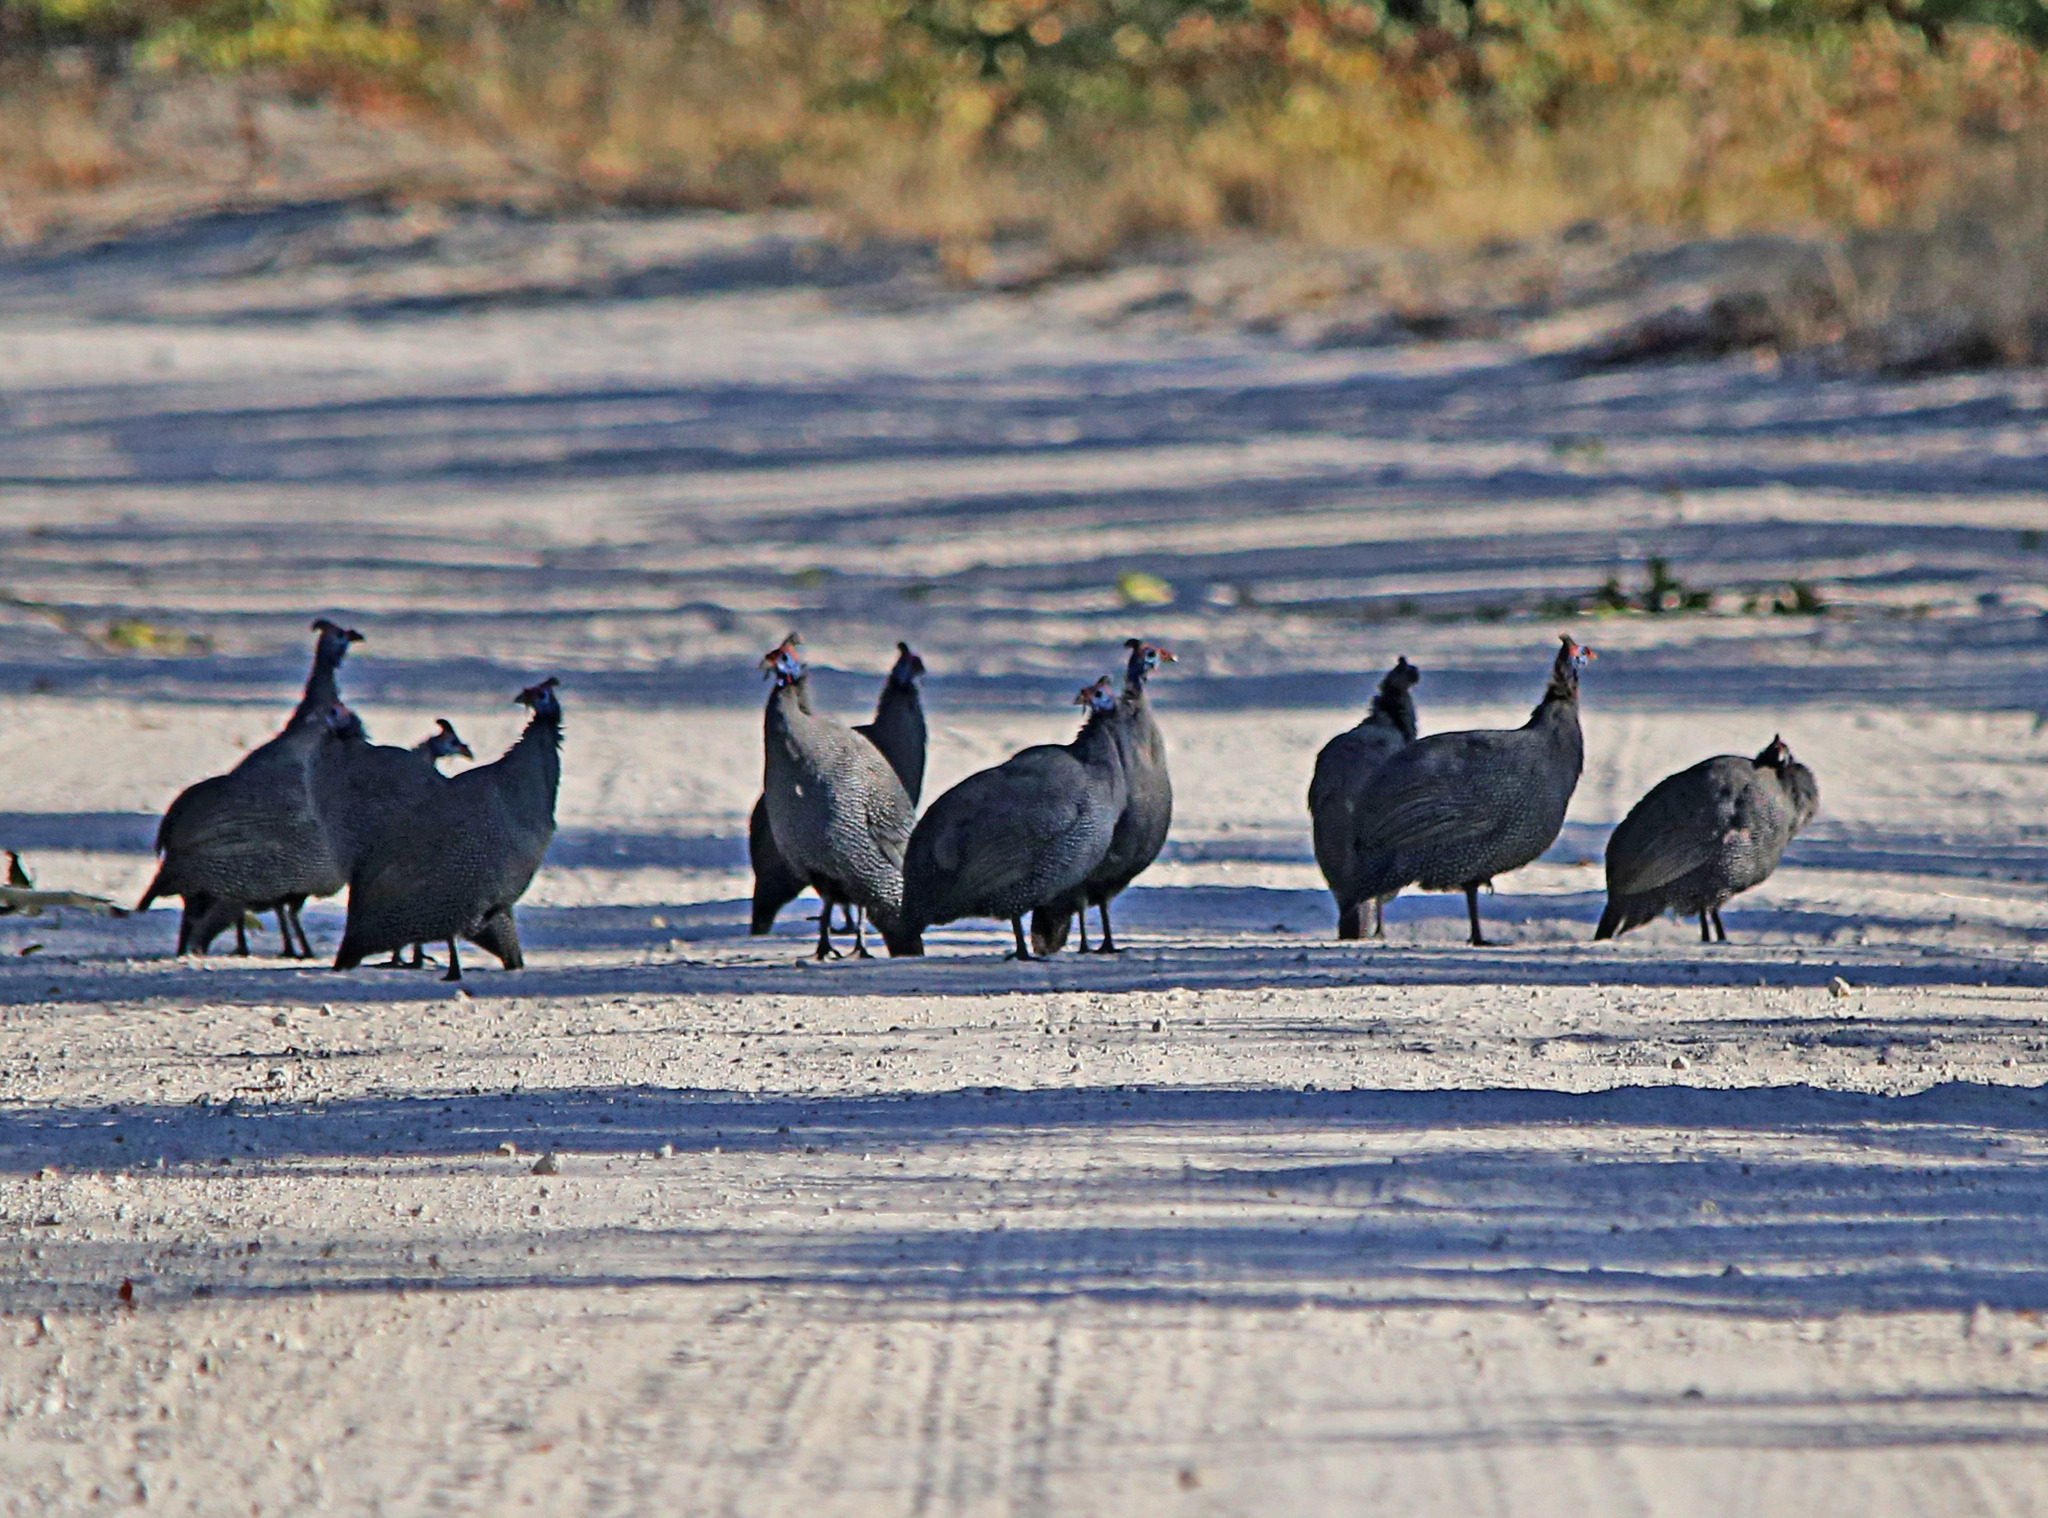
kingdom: Animalia
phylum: Chordata
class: Aves
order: Galliformes
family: Numididae
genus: Numida
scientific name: Numida meleagris
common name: Helmeted guineafowl
